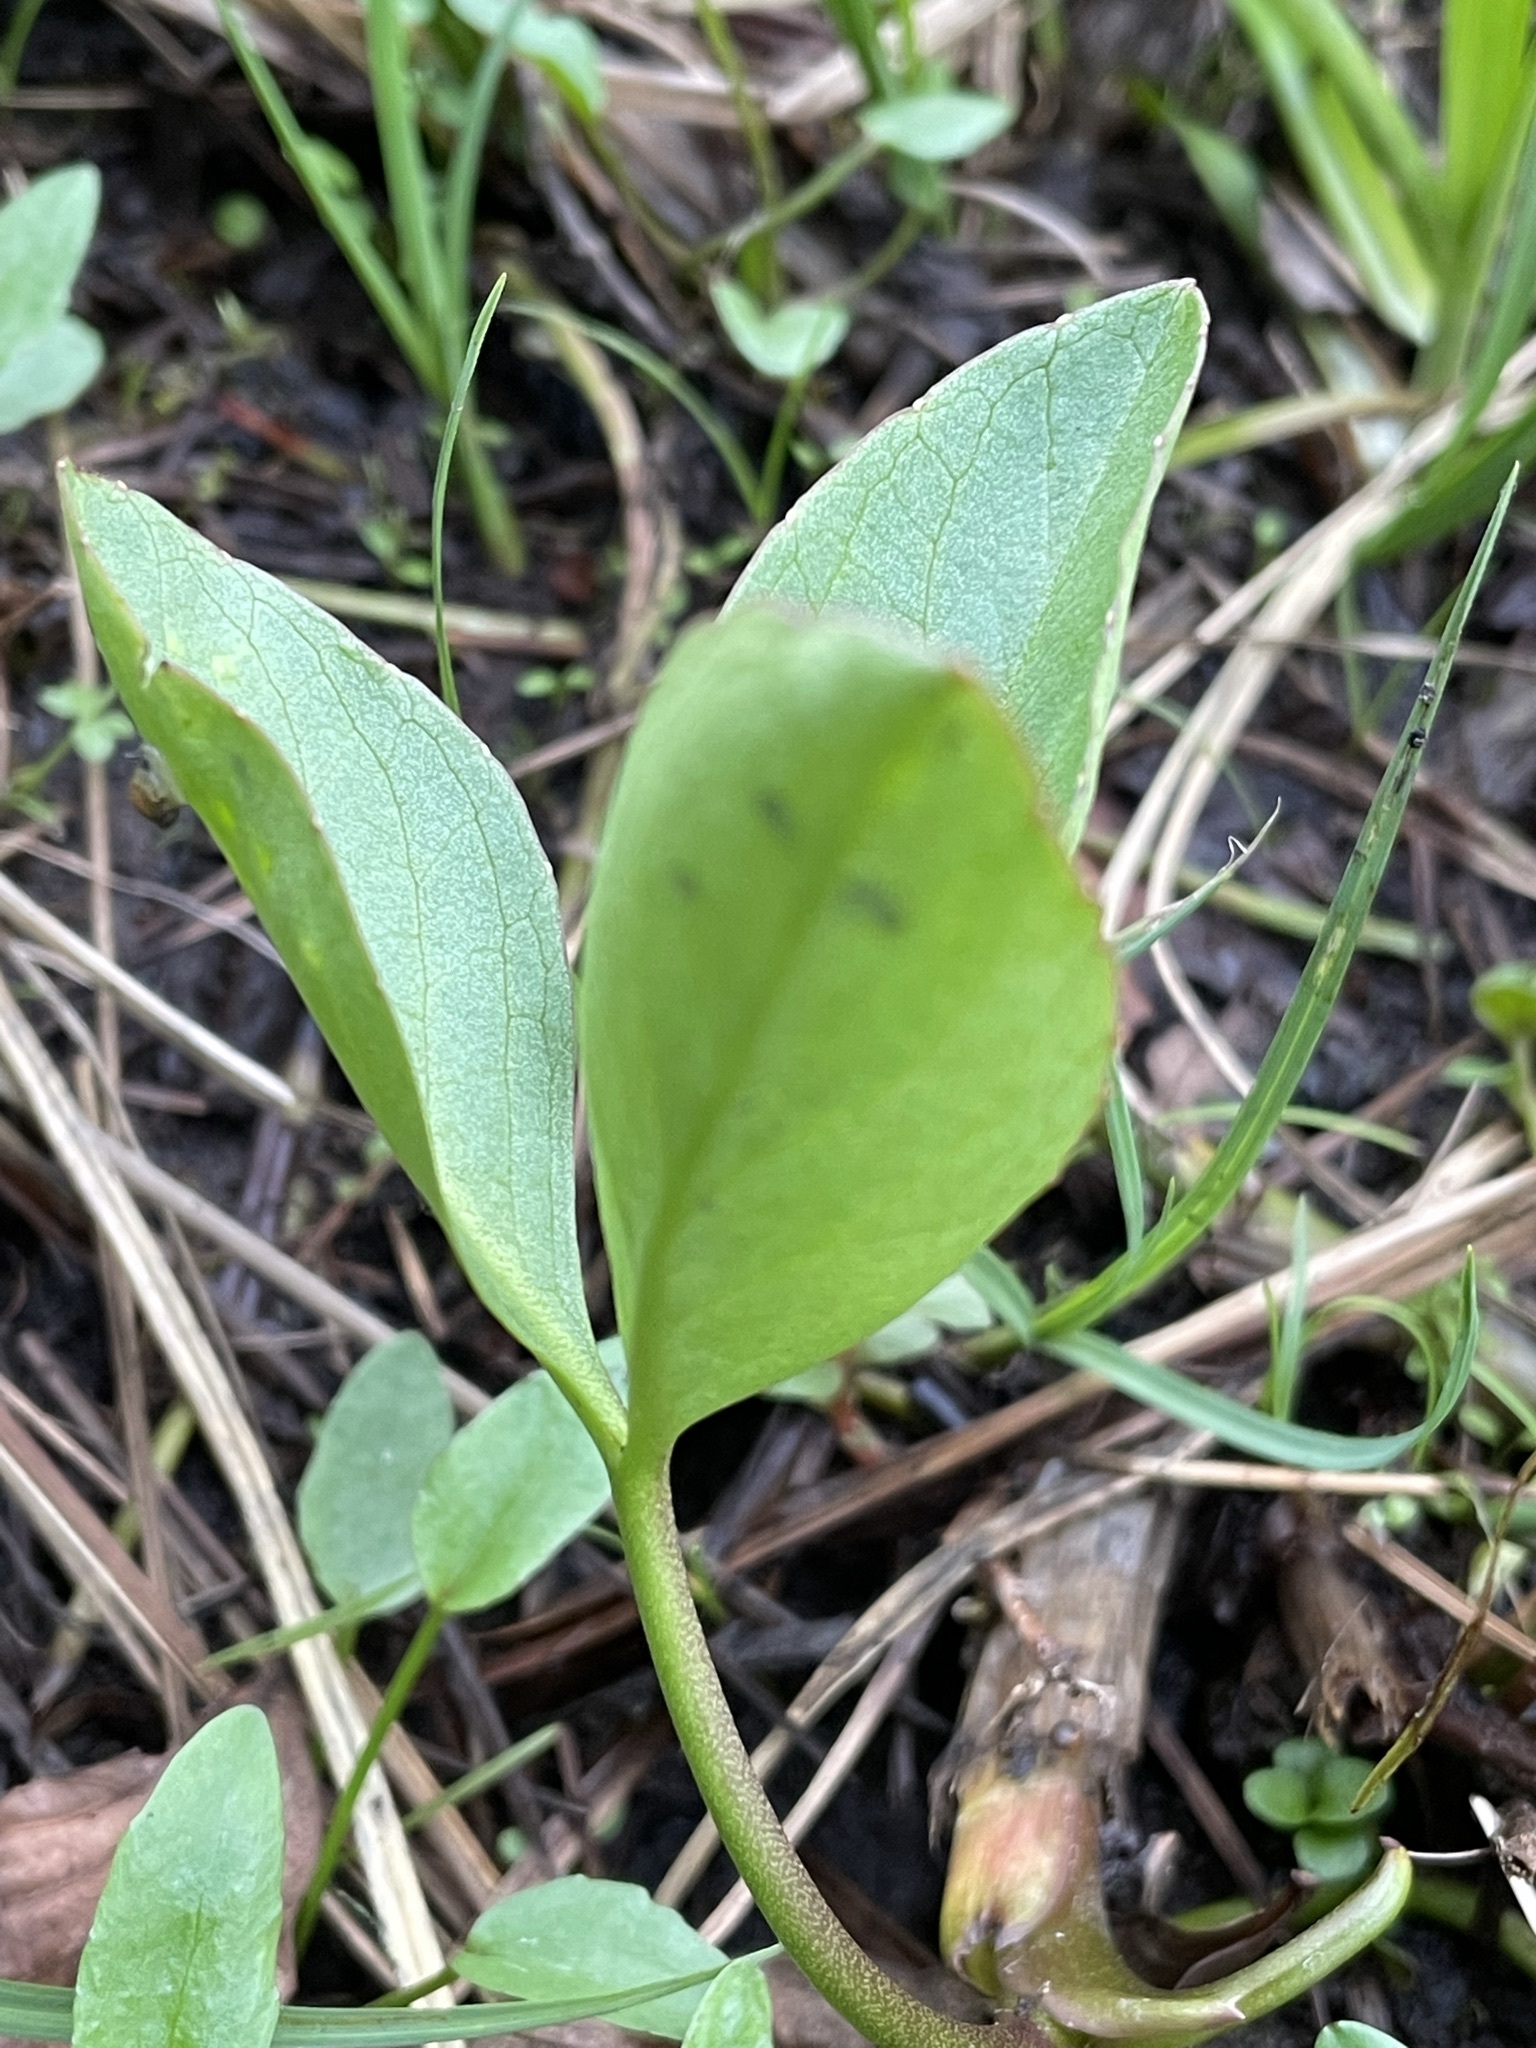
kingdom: Plantae
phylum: Tracheophyta
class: Magnoliopsida
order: Asterales
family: Menyanthaceae
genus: Menyanthes
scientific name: Menyanthes trifoliata
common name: Bogbean
